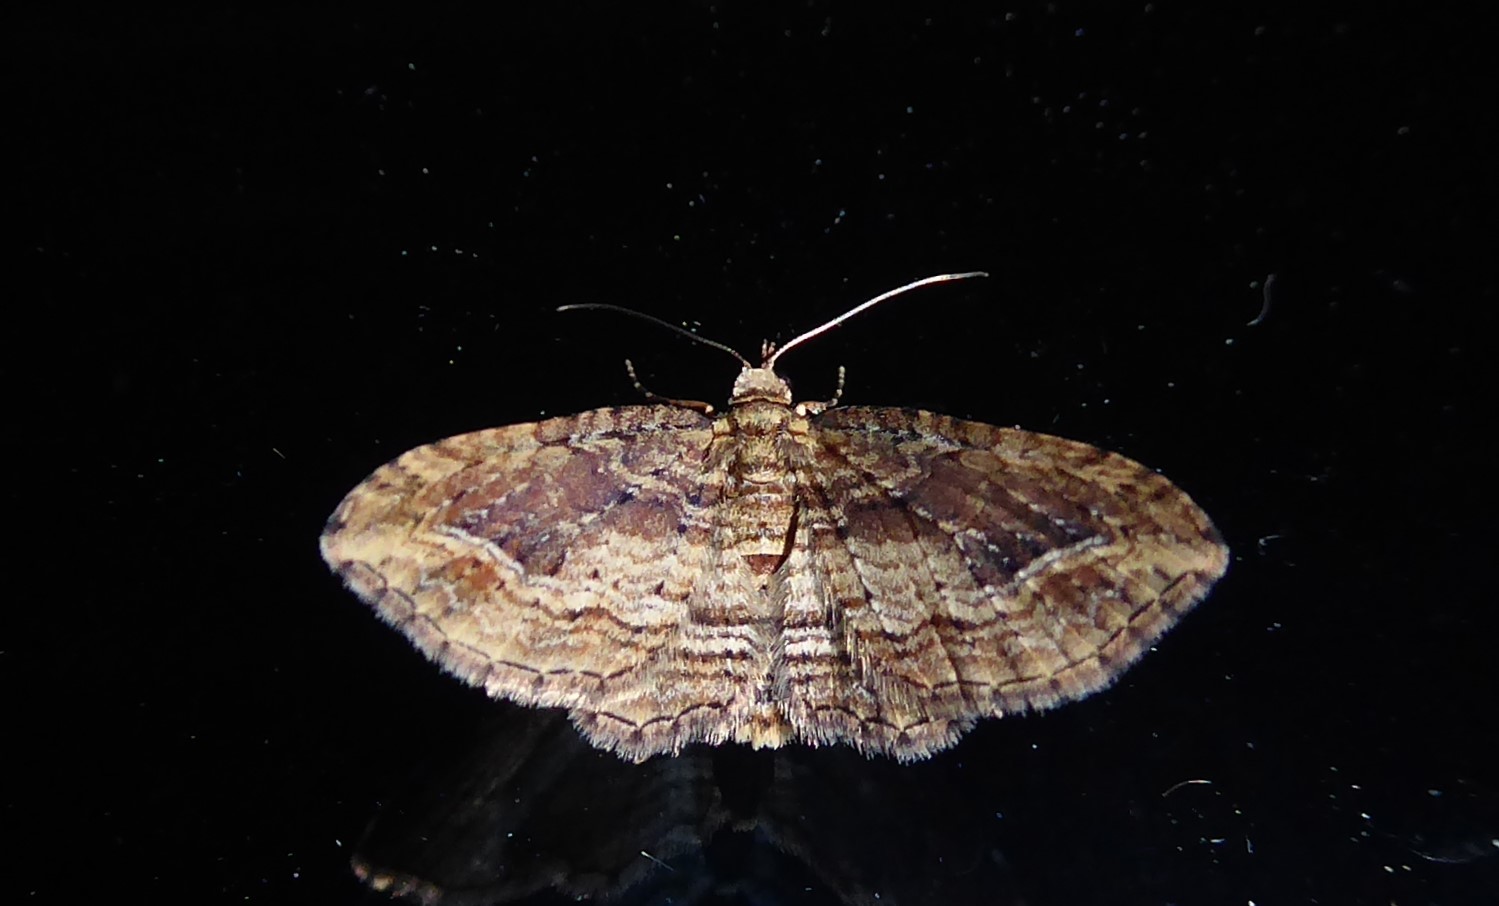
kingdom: Animalia
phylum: Arthropoda
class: Insecta
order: Lepidoptera
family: Geometridae
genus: Chloroclystis
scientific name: Chloroclystis filata
